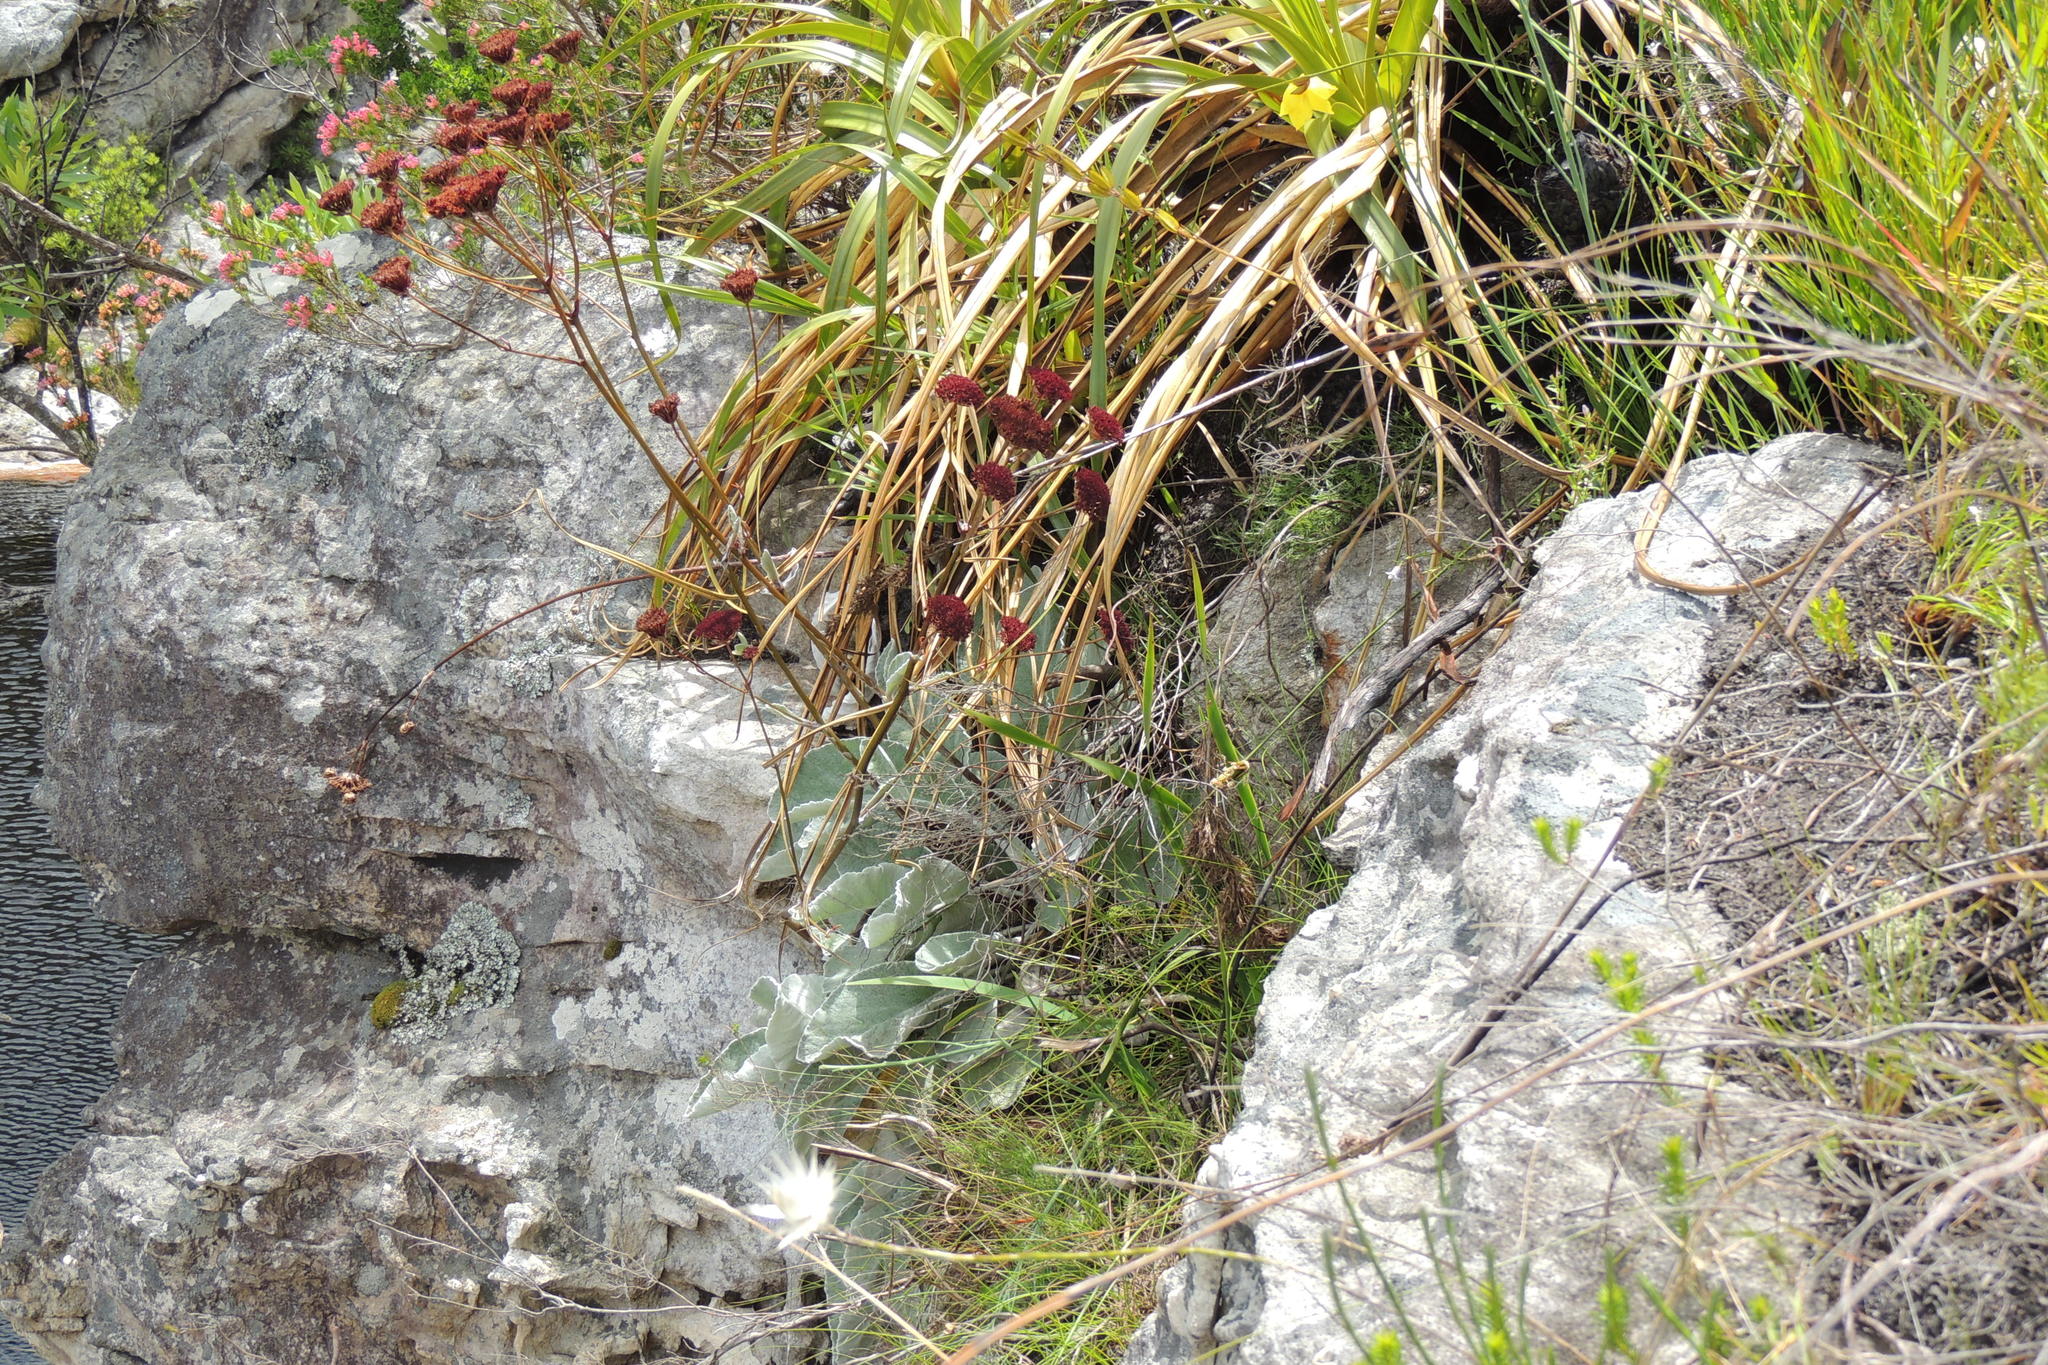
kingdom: Plantae
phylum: Tracheophyta
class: Magnoliopsida
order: Apiales
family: Apiaceae
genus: Hermas
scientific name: Hermas gigantea
